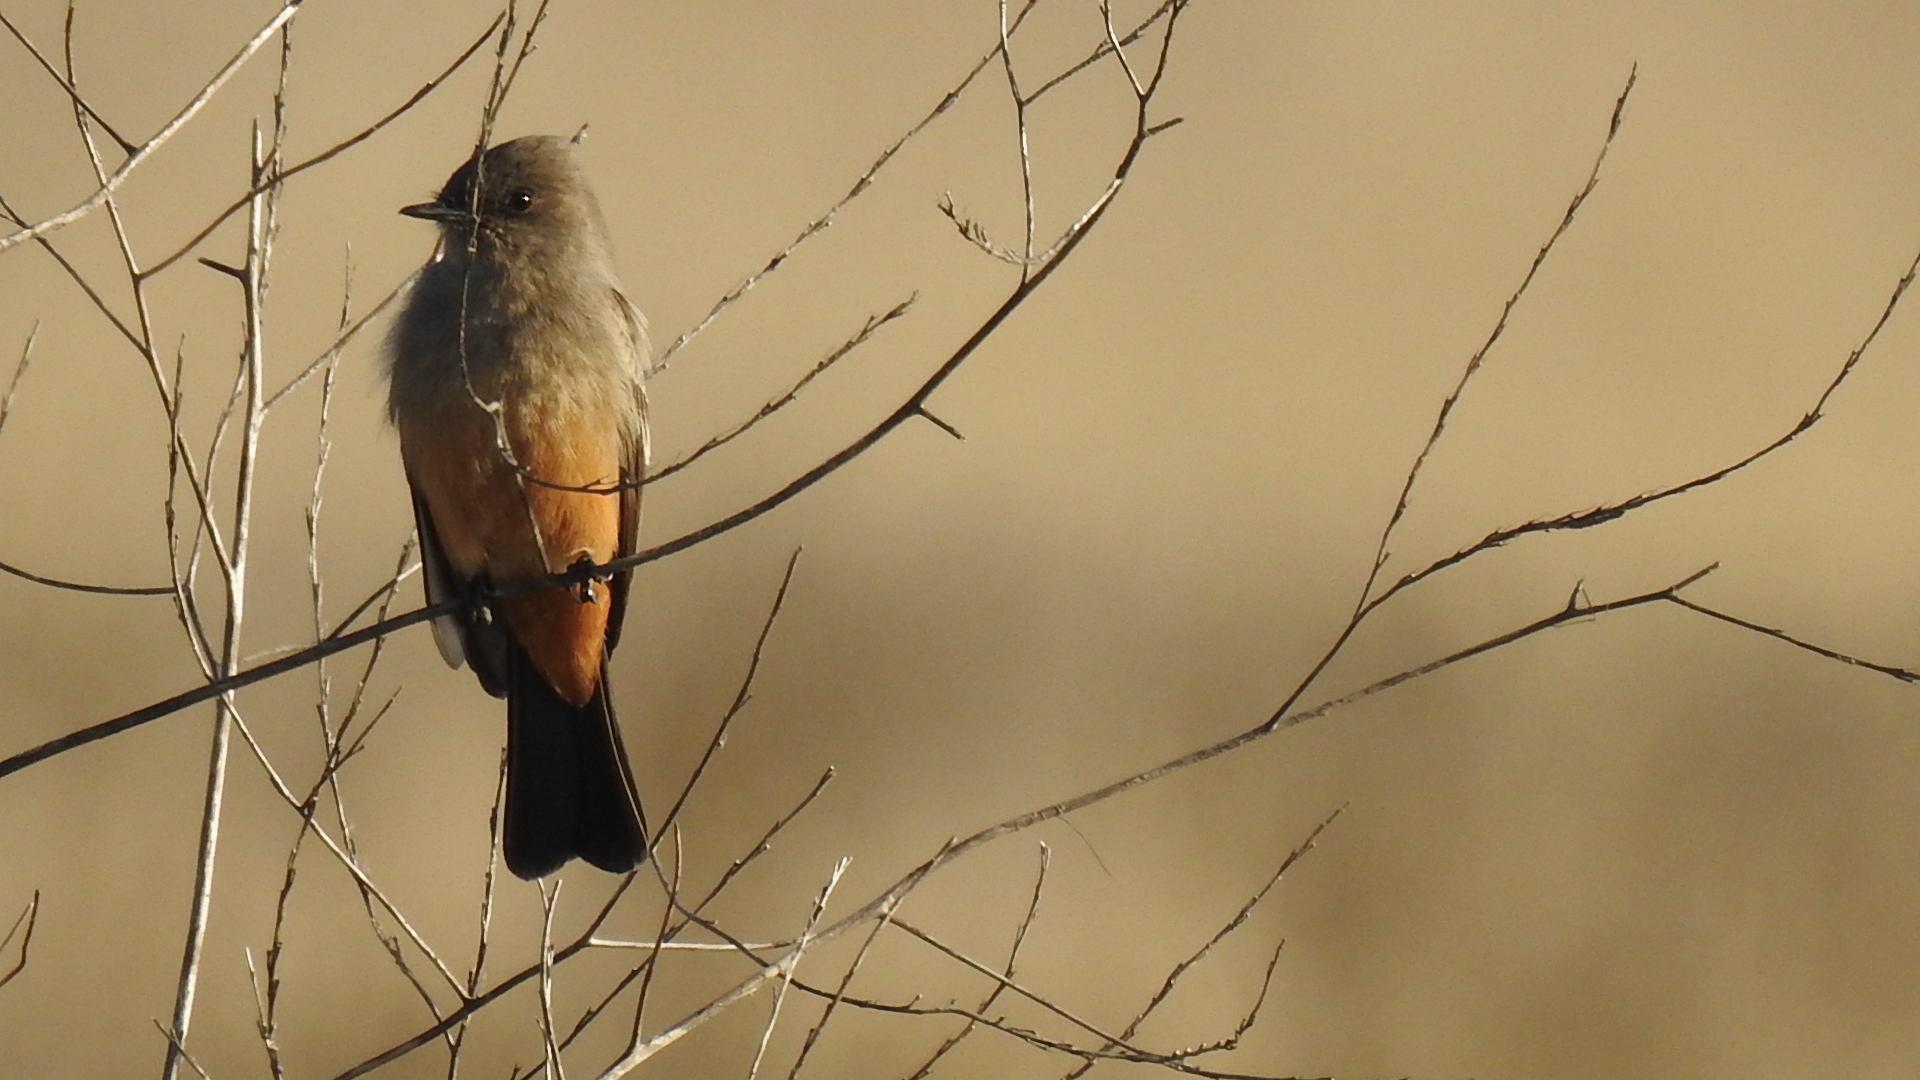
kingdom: Animalia
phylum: Chordata
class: Aves
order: Passeriformes
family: Tyrannidae
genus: Sayornis
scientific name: Sayornis saya
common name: Say's phoebe
